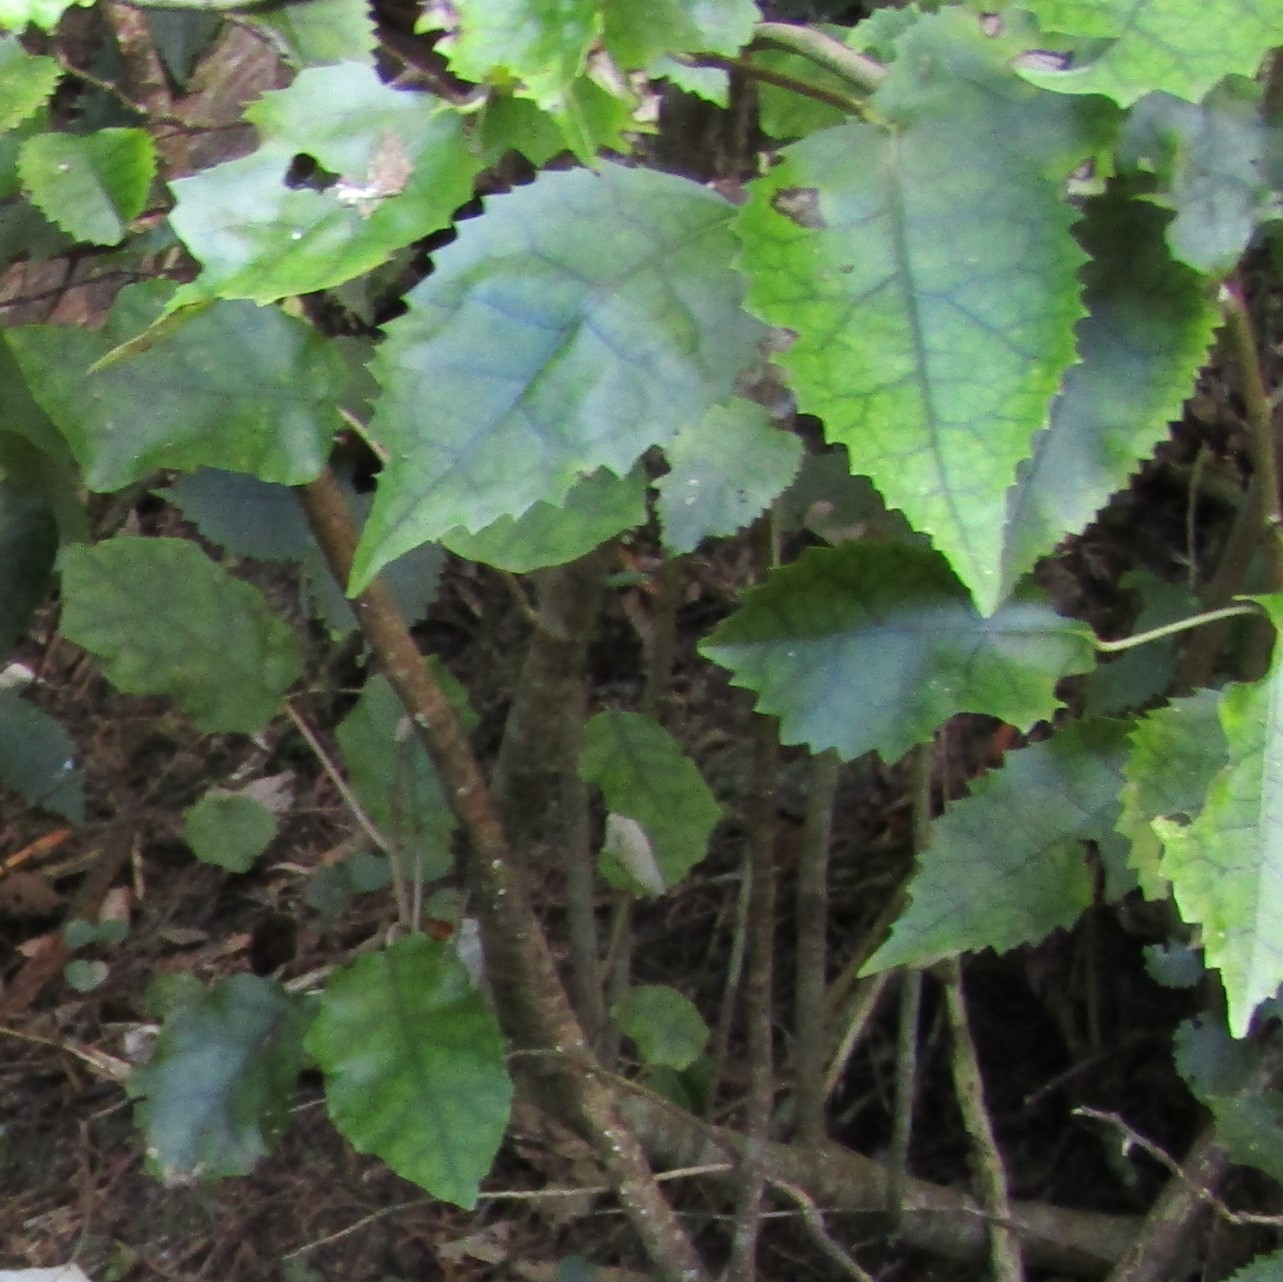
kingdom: Plantae
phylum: Tracheophyta
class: Magnoliopsida
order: Malvales
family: Malvaceae
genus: Hoheria
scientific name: Hoheria populnea
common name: Lacebark
